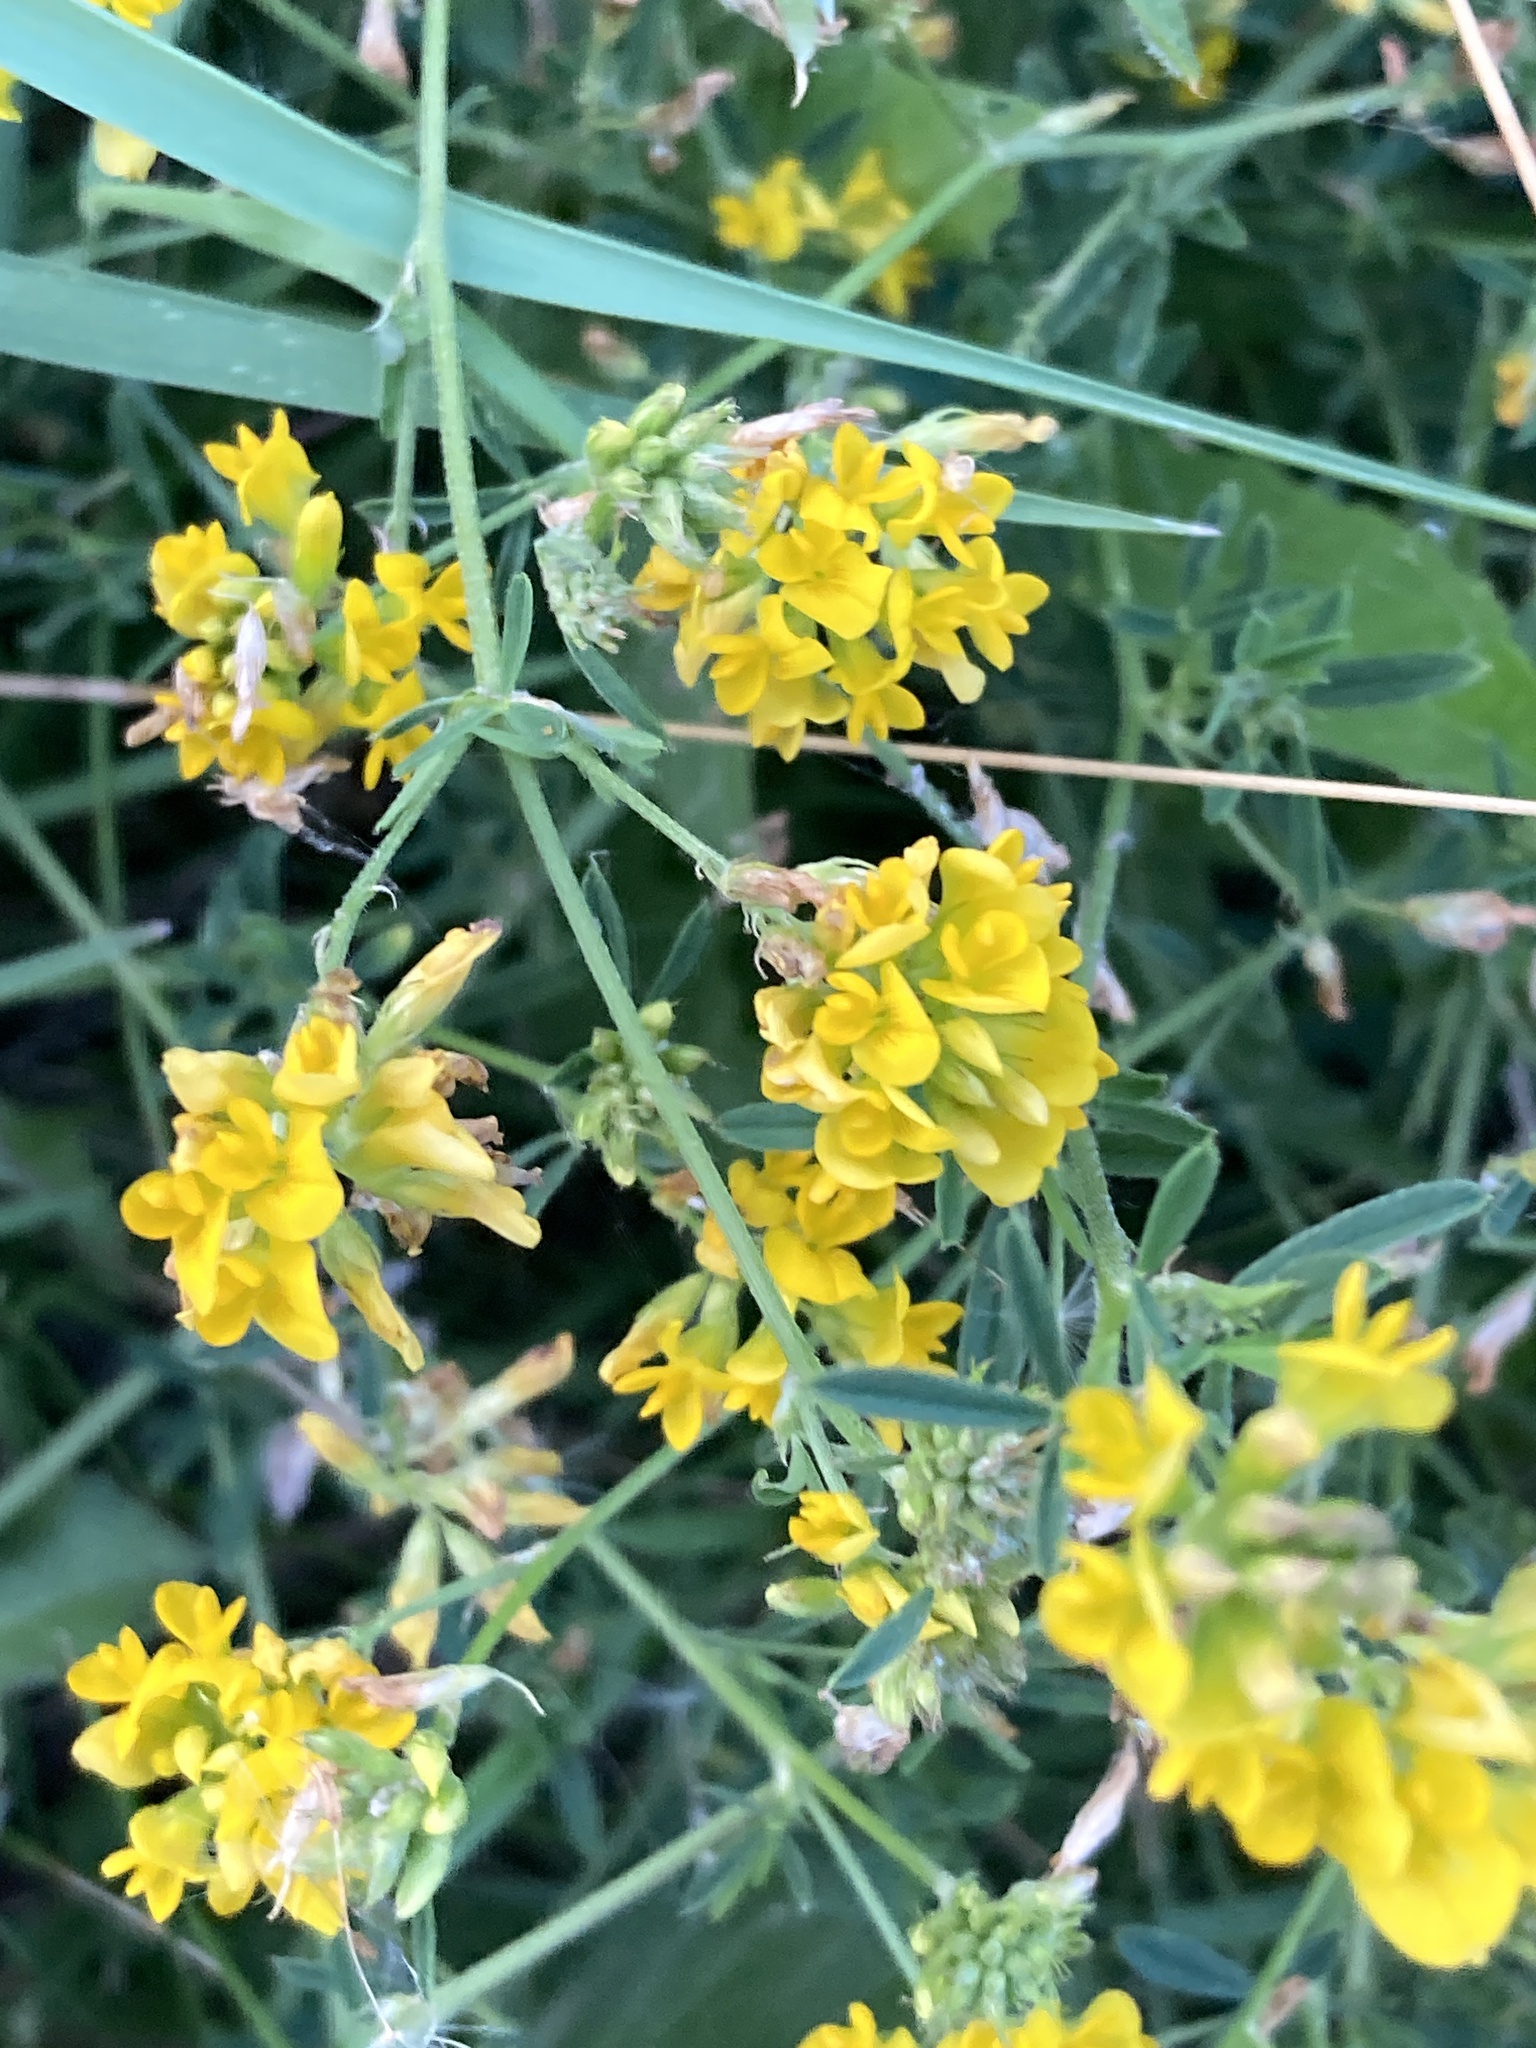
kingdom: Plantae
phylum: Tracheophyta
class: Magnoliopsida
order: Fabales
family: Fabaceae
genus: Medicago
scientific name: Medicago falcata
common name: Sickle medick
